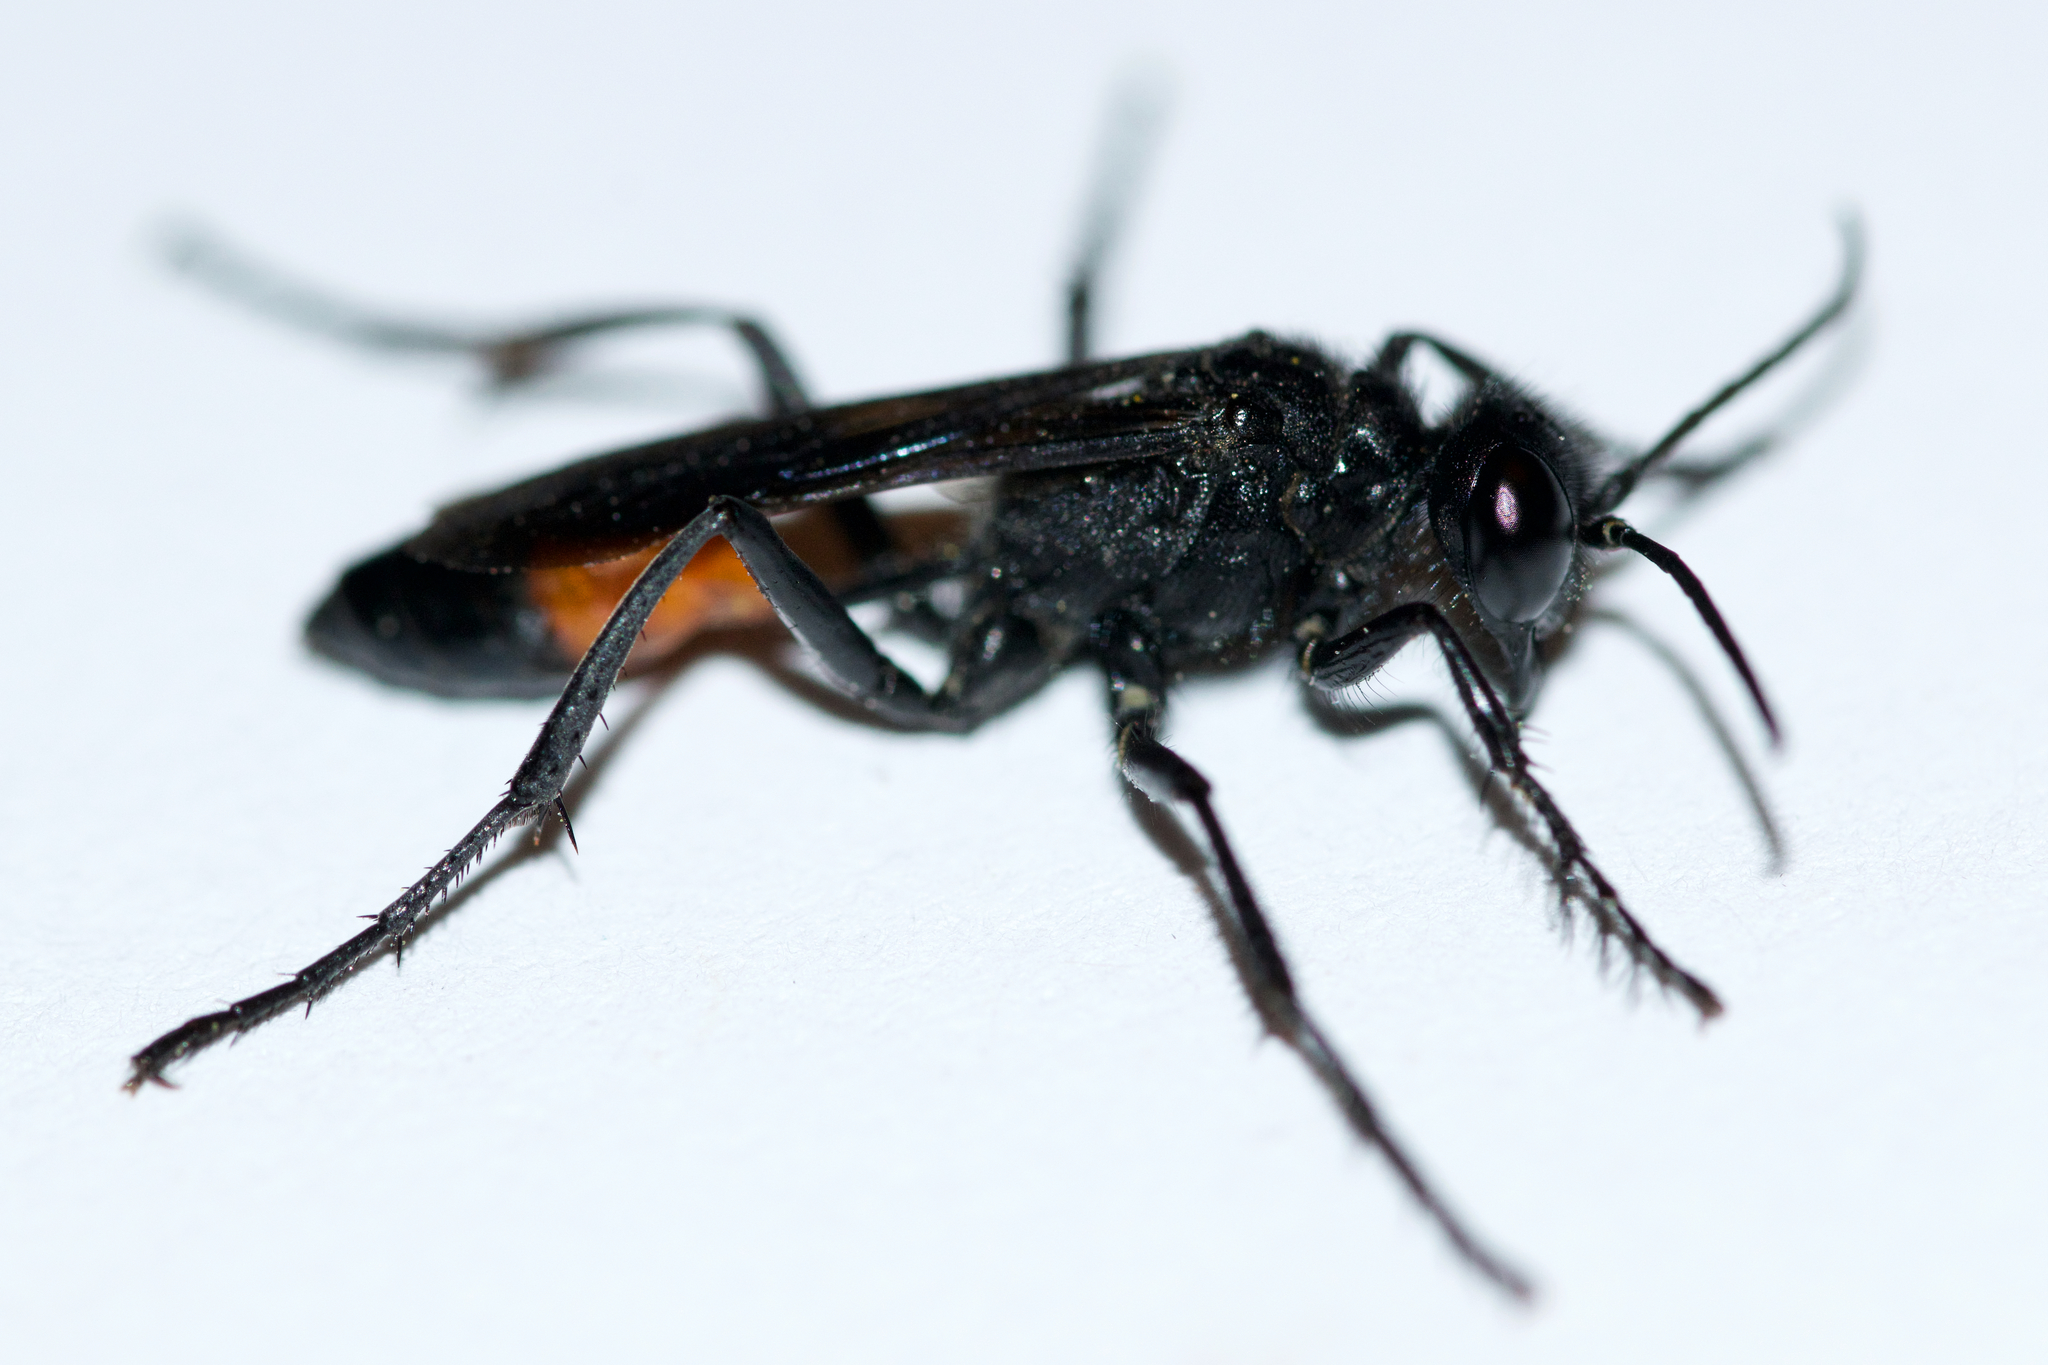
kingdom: Animalia
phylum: Arthropoda
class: Insecta
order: Hymenoptera
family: Sphecidae
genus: Podalonia
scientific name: Podalonia robusta
